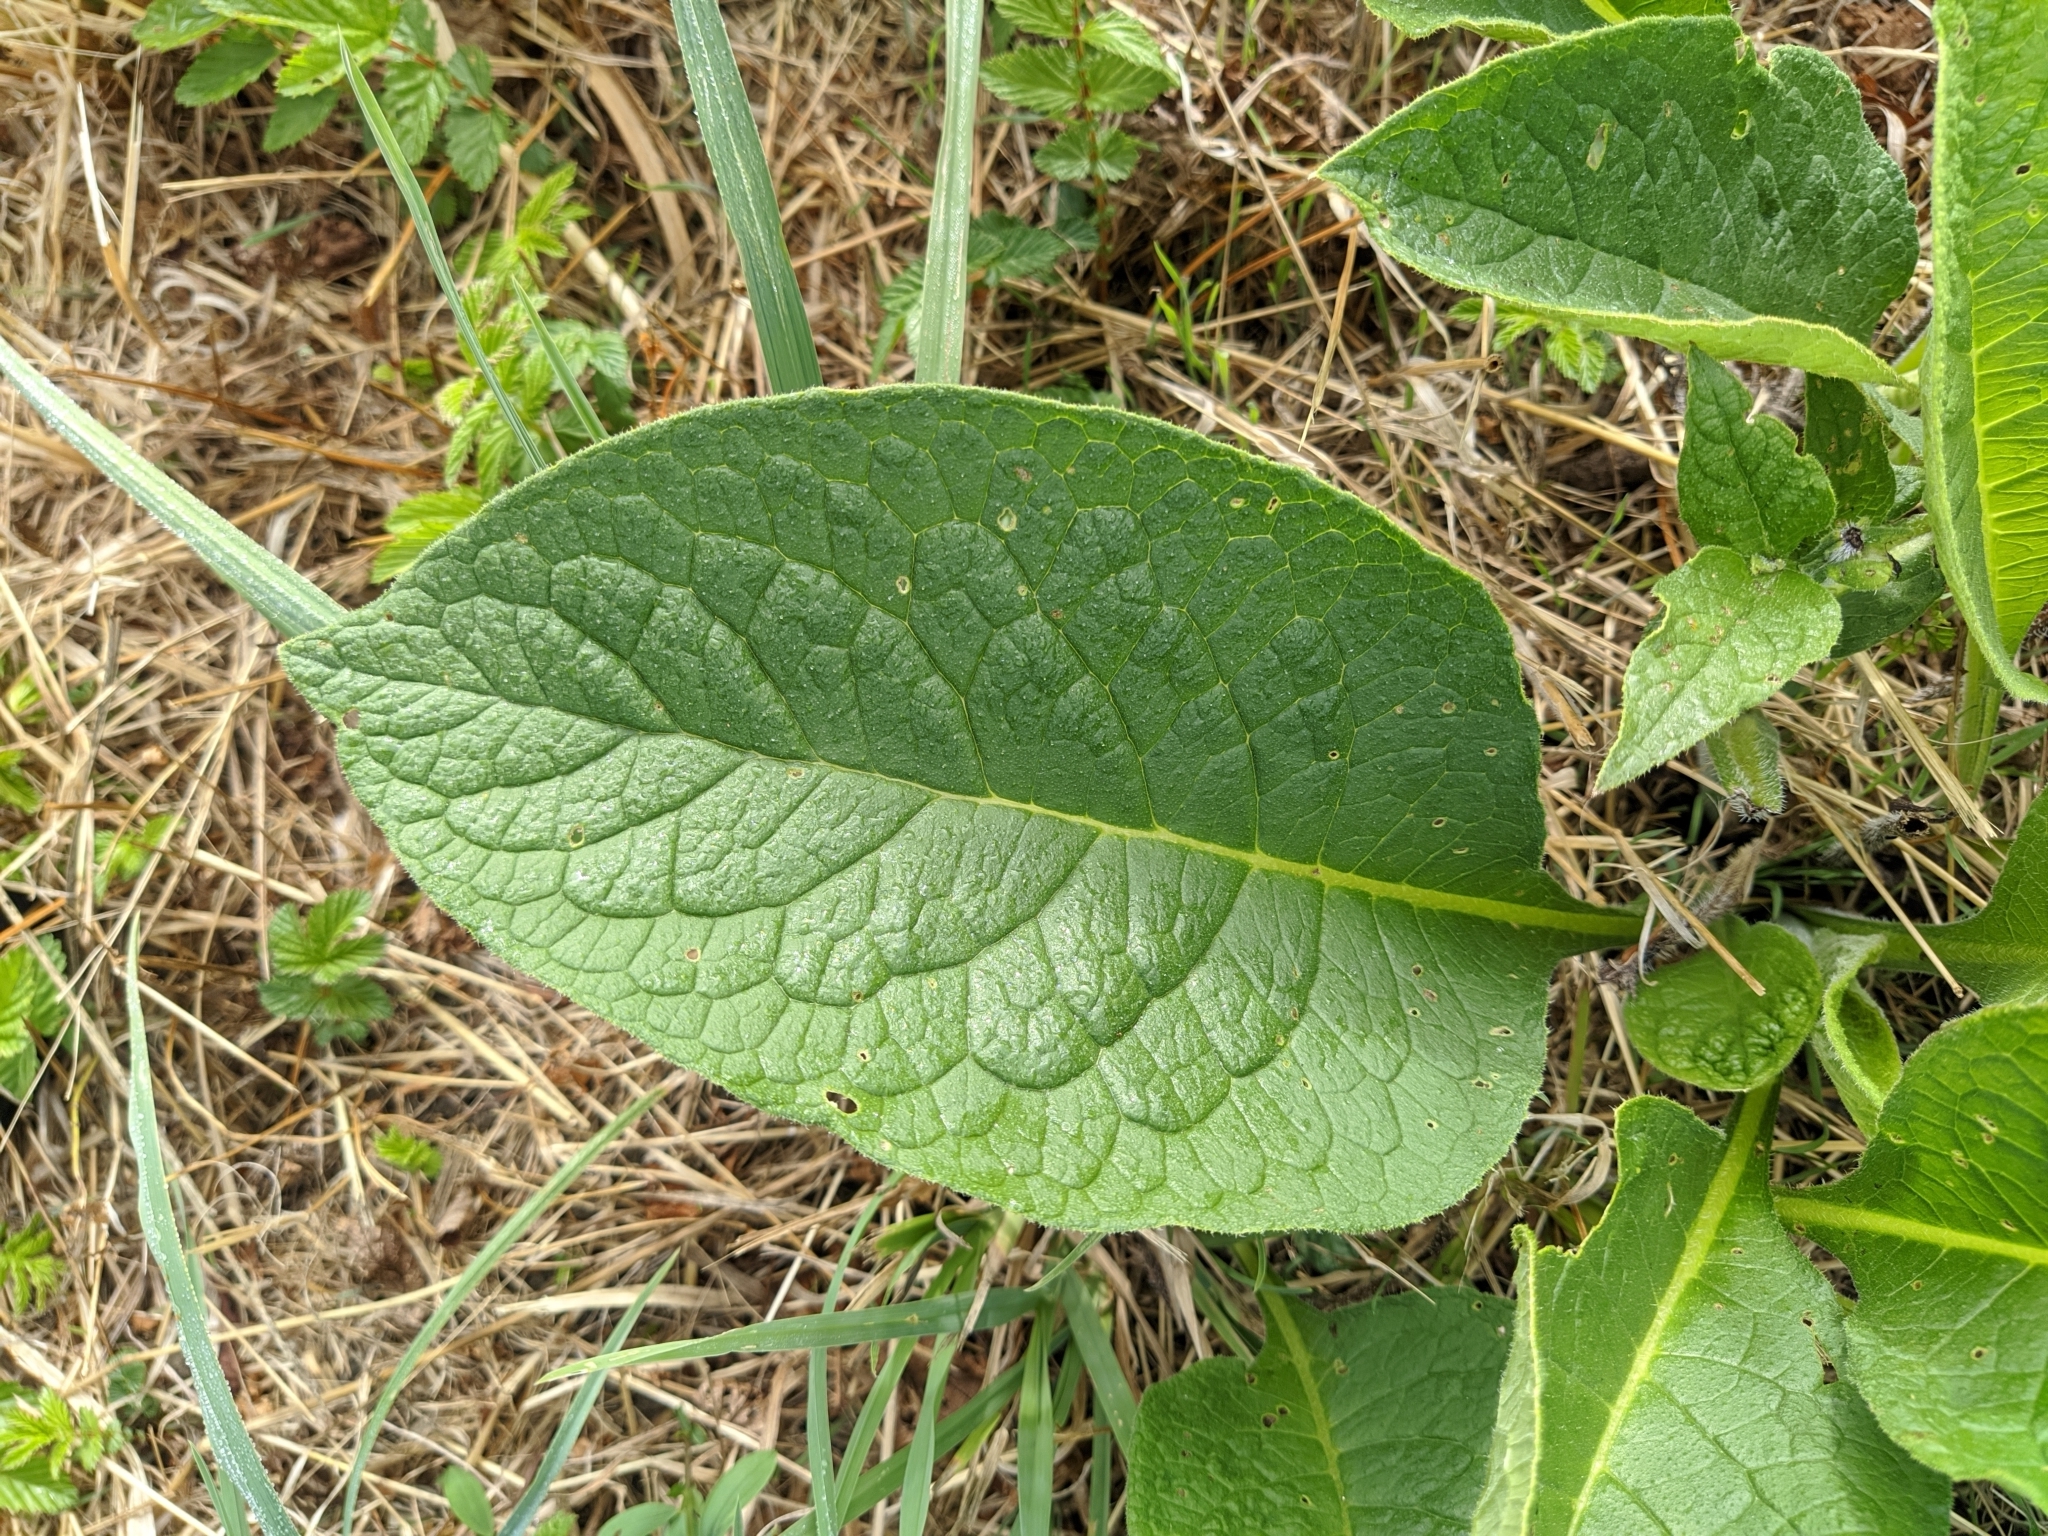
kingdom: Plantae
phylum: Tracheophyta
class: Magnoliopsida
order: Boraginales
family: Boraginaceae
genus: Symphytum
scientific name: Symphytum officinale
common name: Common comfrey
